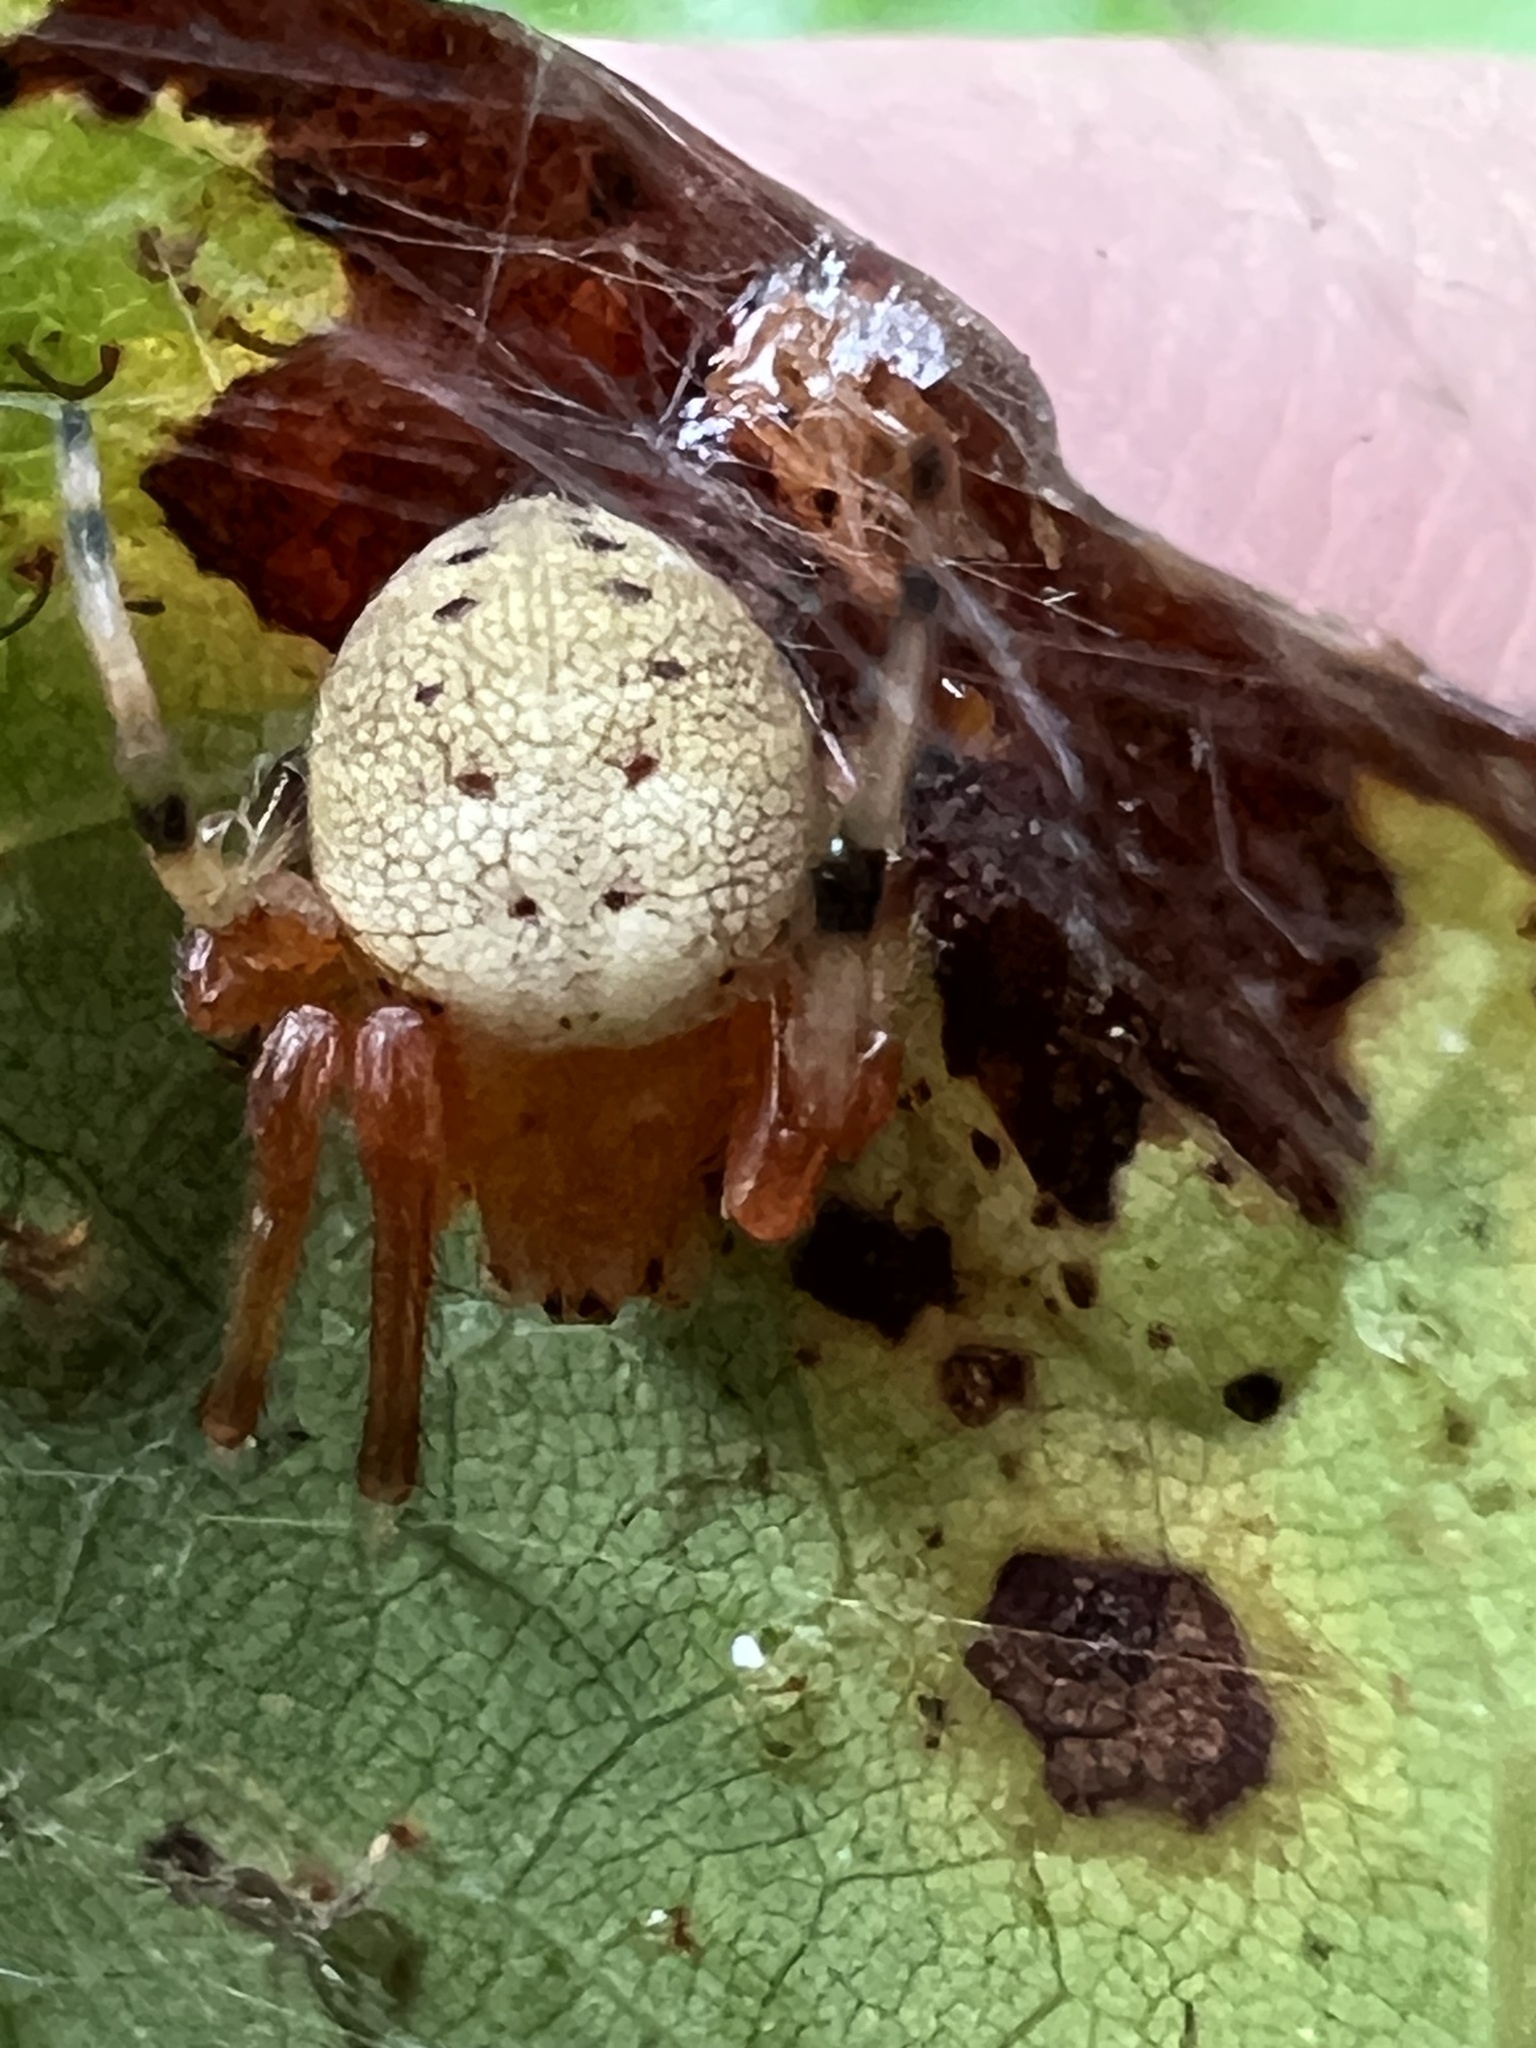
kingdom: Animalia
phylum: Arthropoda
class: Arachnida
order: Araneae
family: Araneidae
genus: Araneus
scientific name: Araneus thaddeus
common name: Lattice orbweaver
